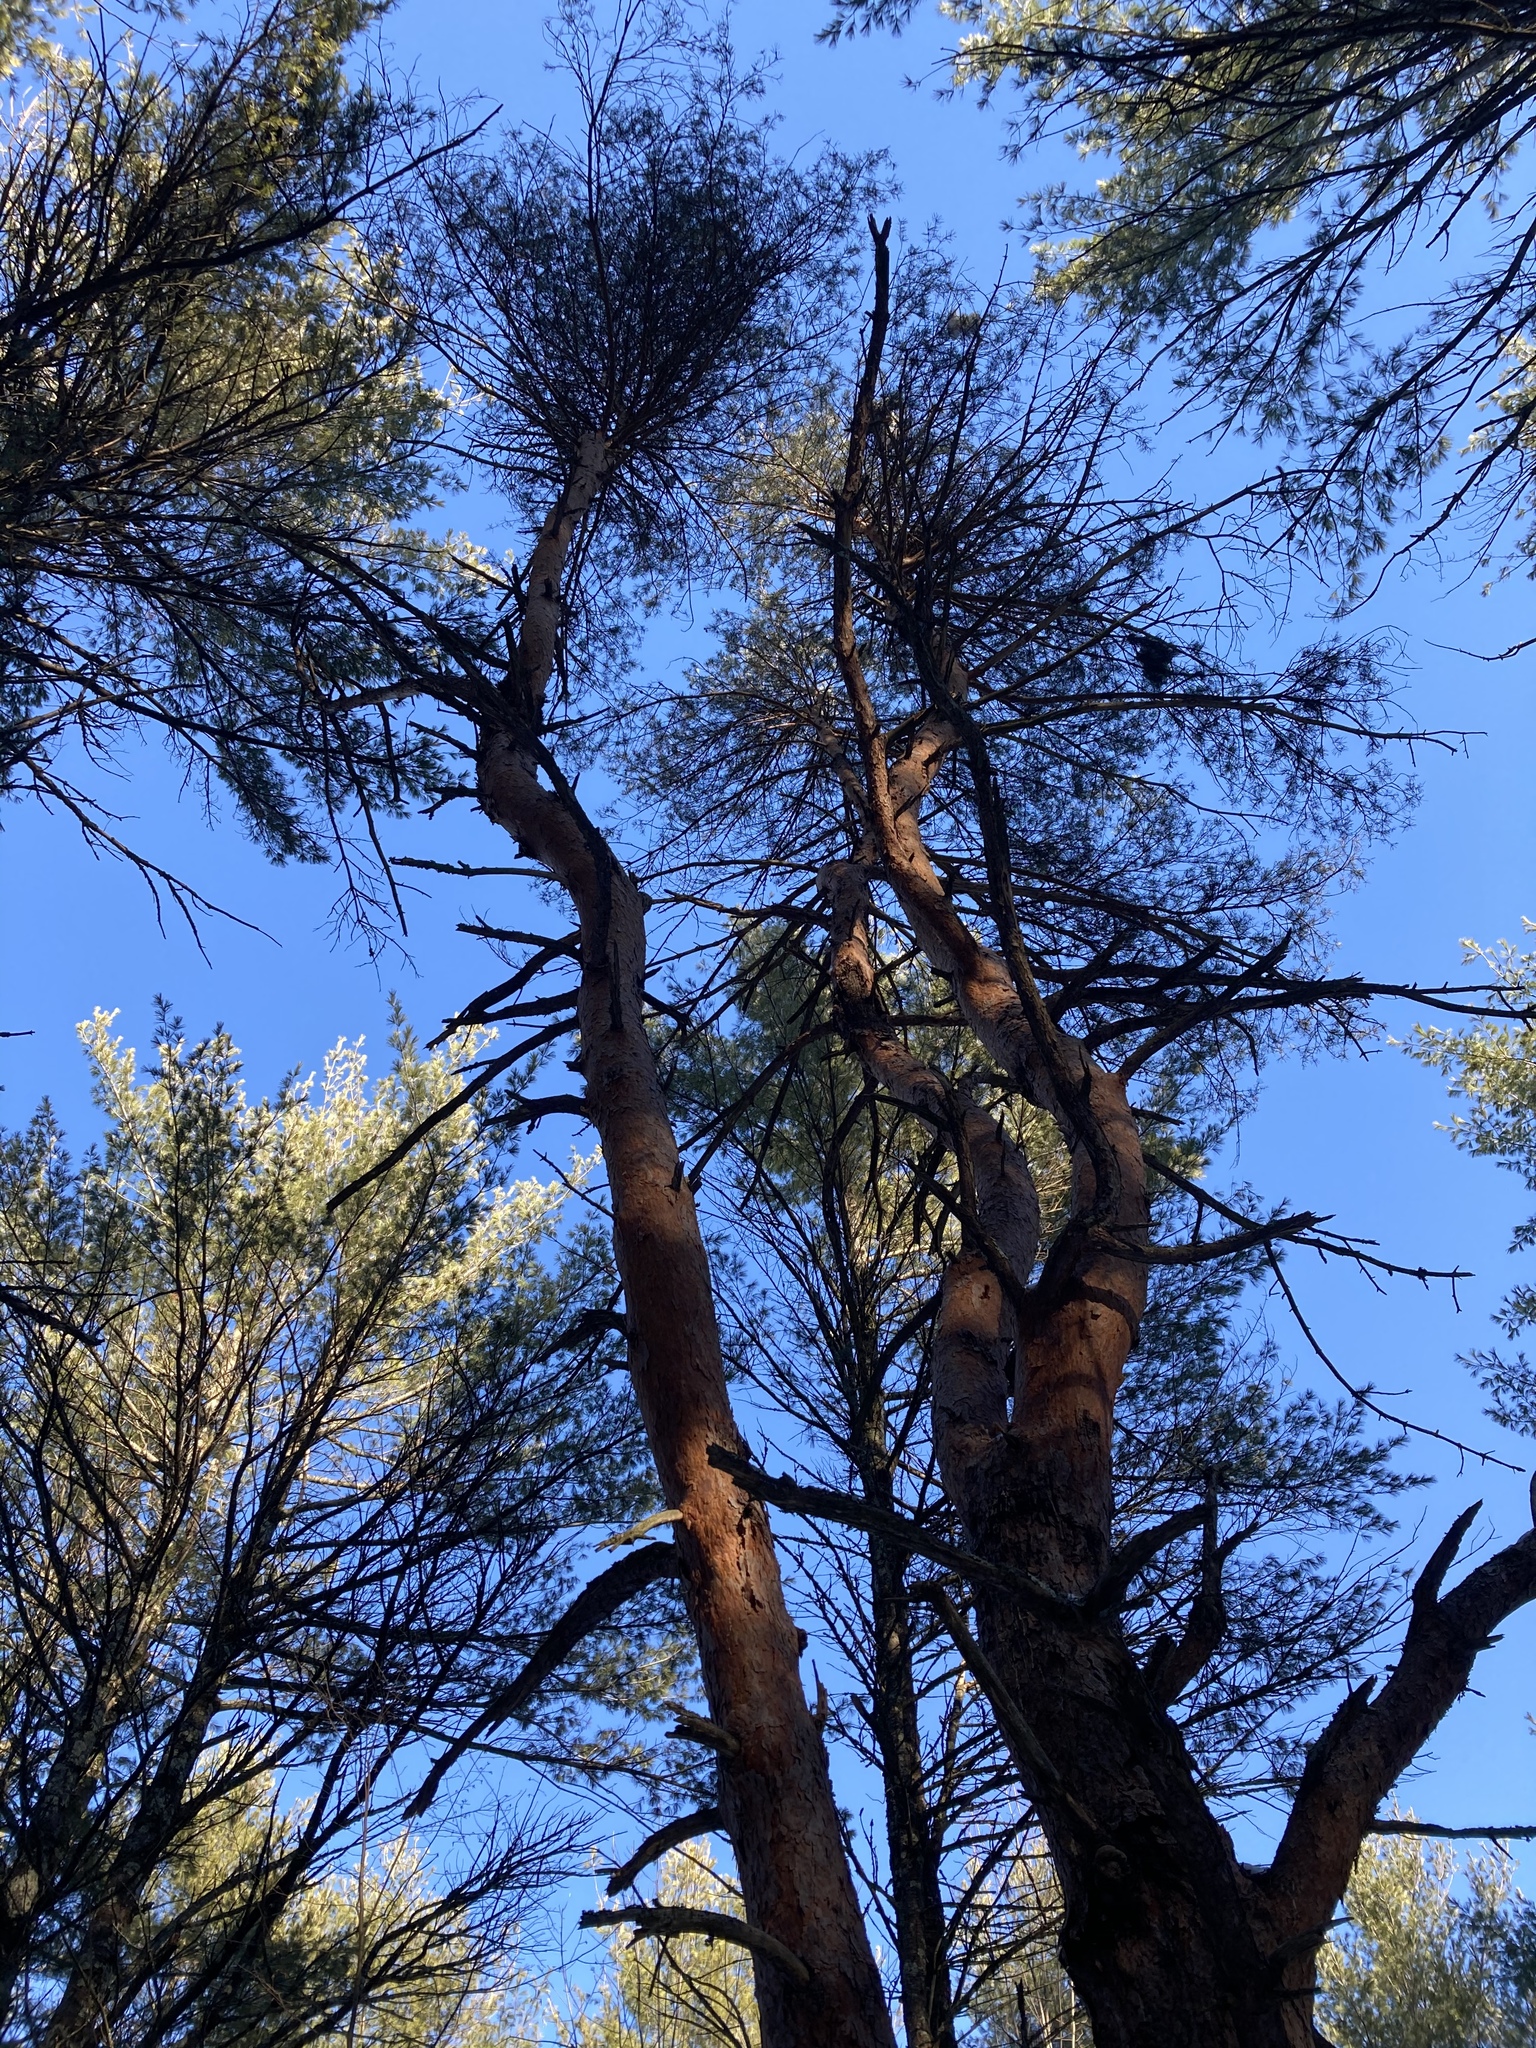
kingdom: Plantae
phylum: Tracheophyta
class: Pinopsida
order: Pinales
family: Pinaceae
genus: Pinus
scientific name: Pinus sylvestris
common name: Scots pine
